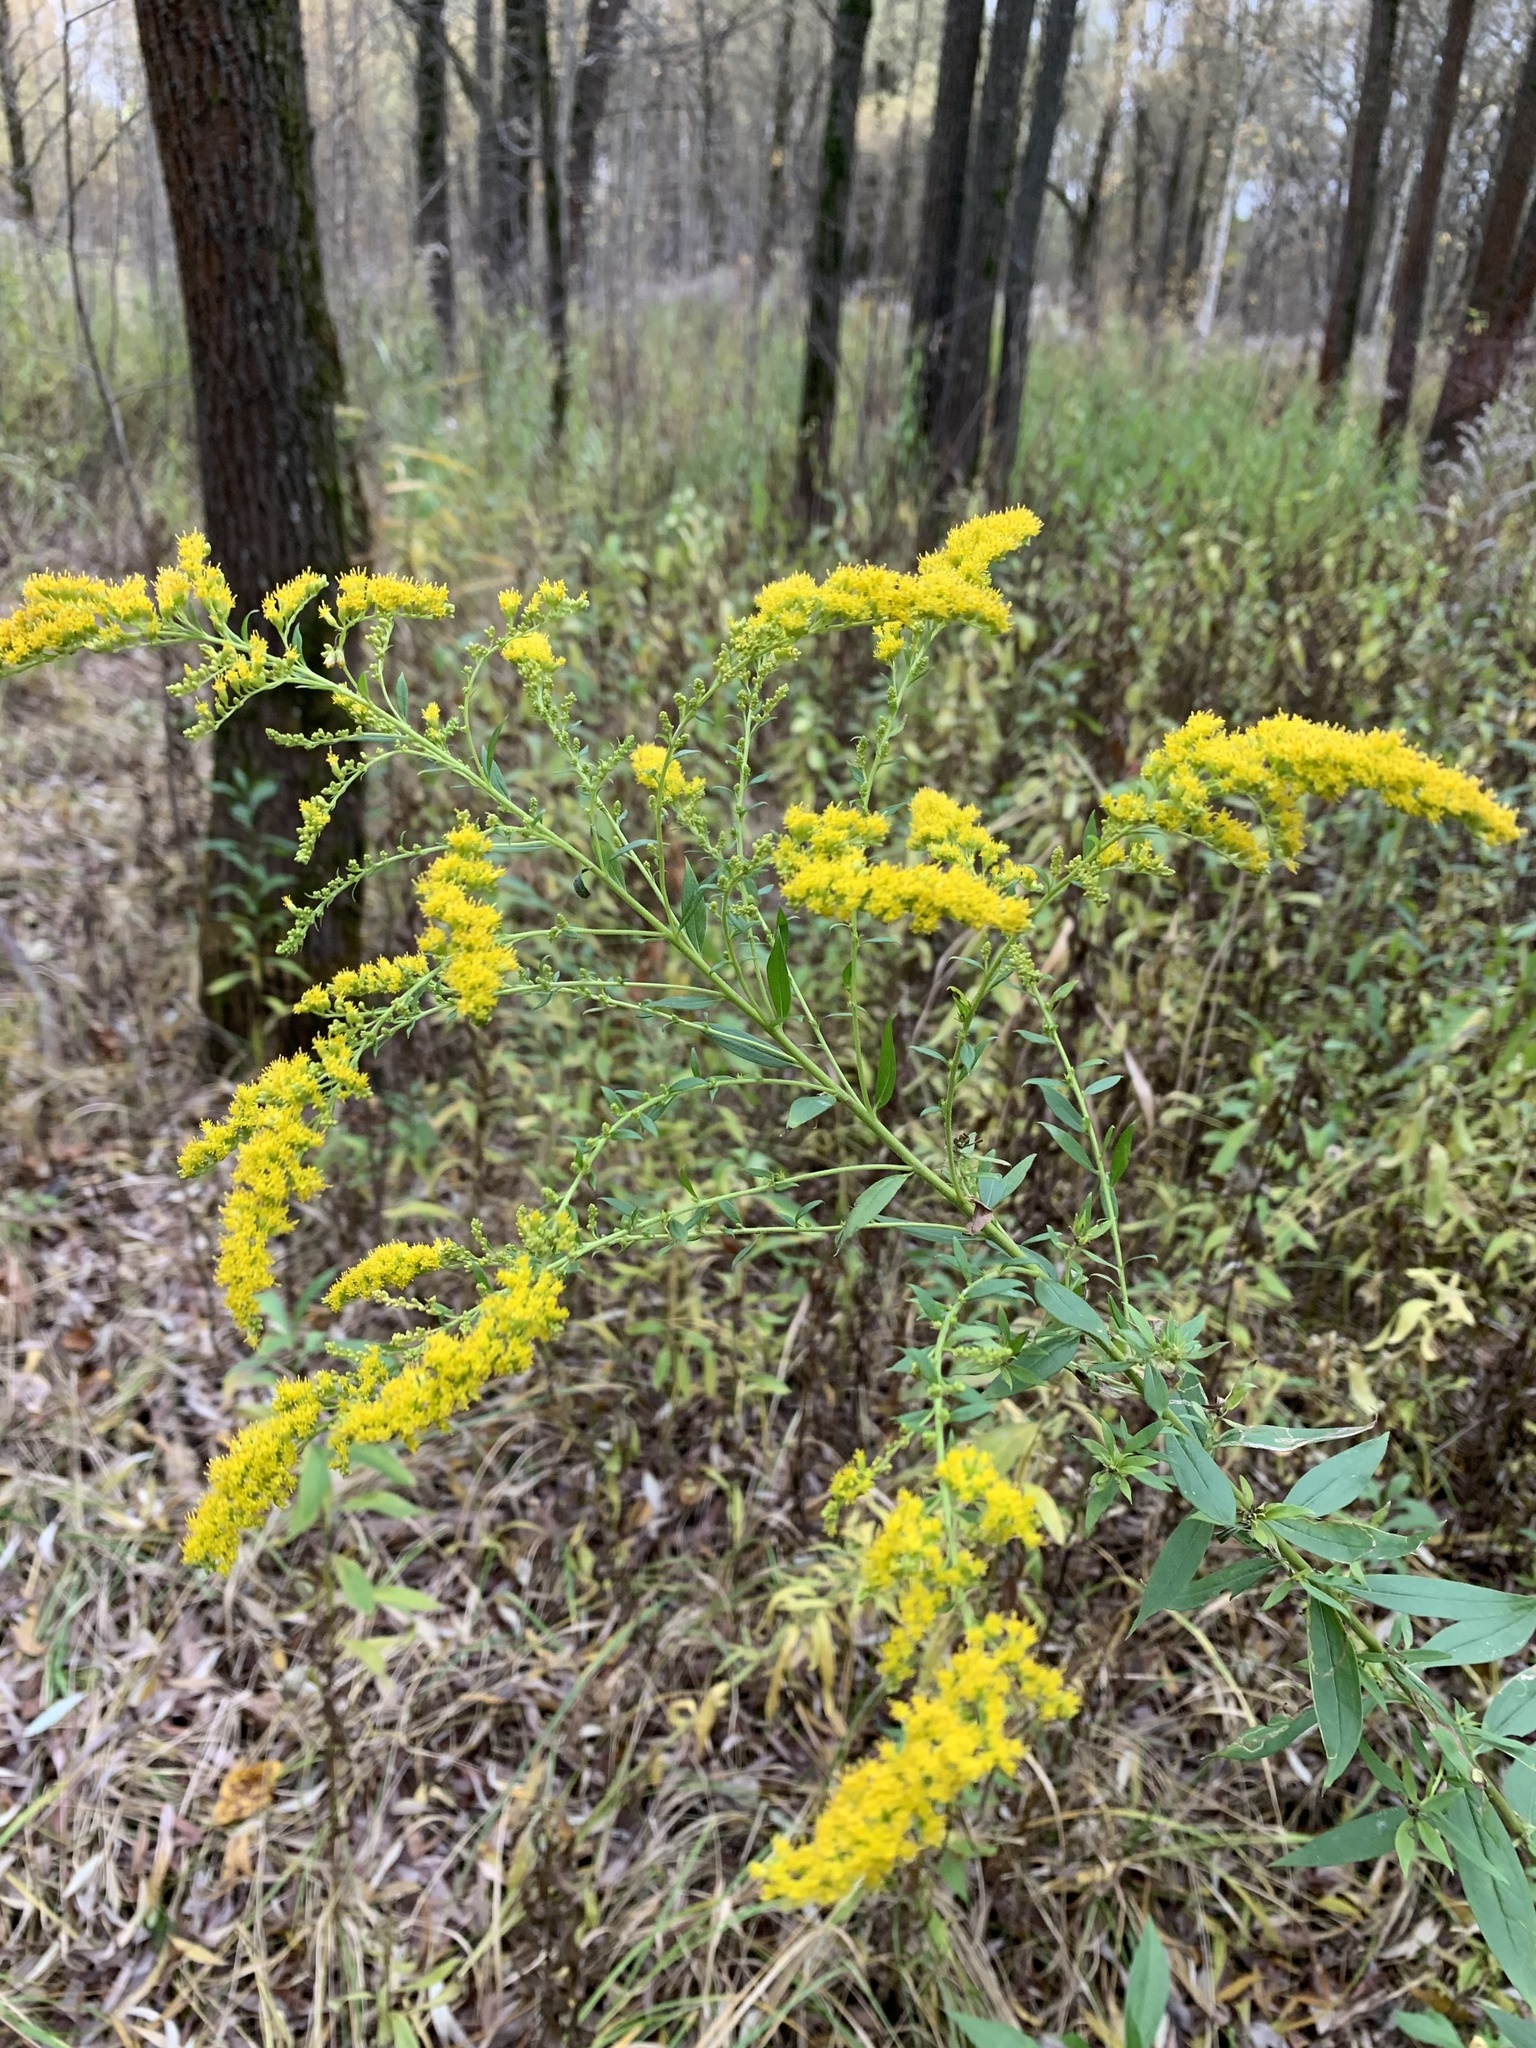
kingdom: Plantae
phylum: Tracheophyta
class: Magnoliopsida
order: Asterales
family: Asteraceae
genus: Solidago
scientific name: Solidago canadensis
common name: Canada goldenrod
